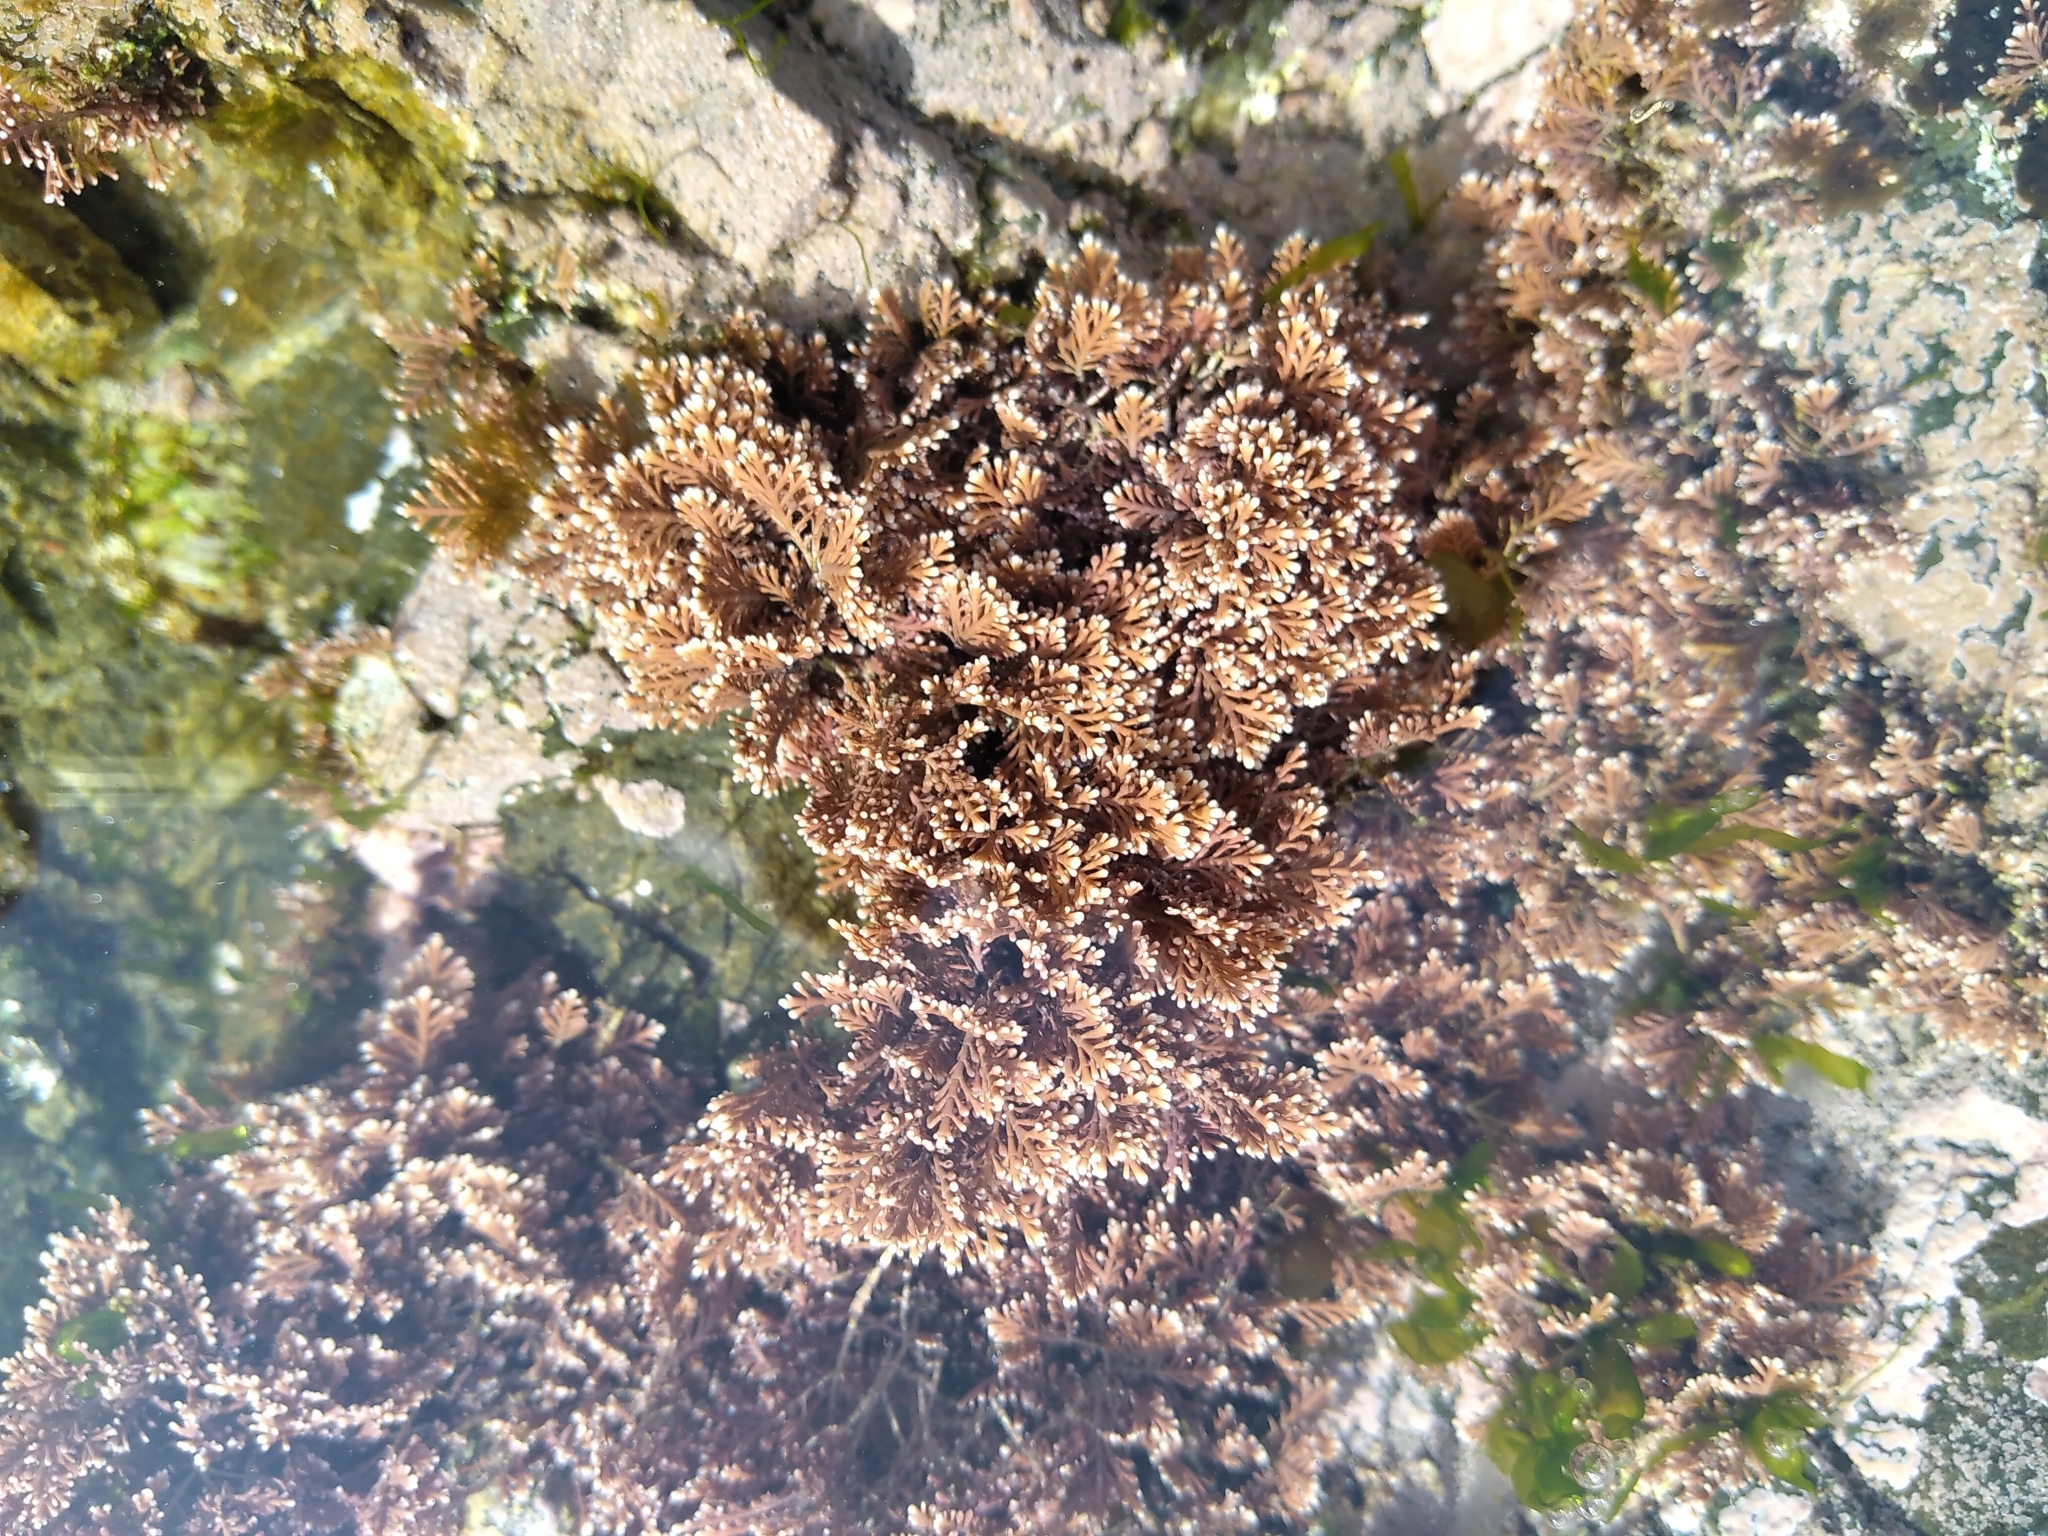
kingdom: Plantae
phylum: Rhodophyta
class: Florideophyceae
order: Corallinales
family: Corallinaceae
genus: Corallina
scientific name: Corallina officinalis
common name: Coral weed
